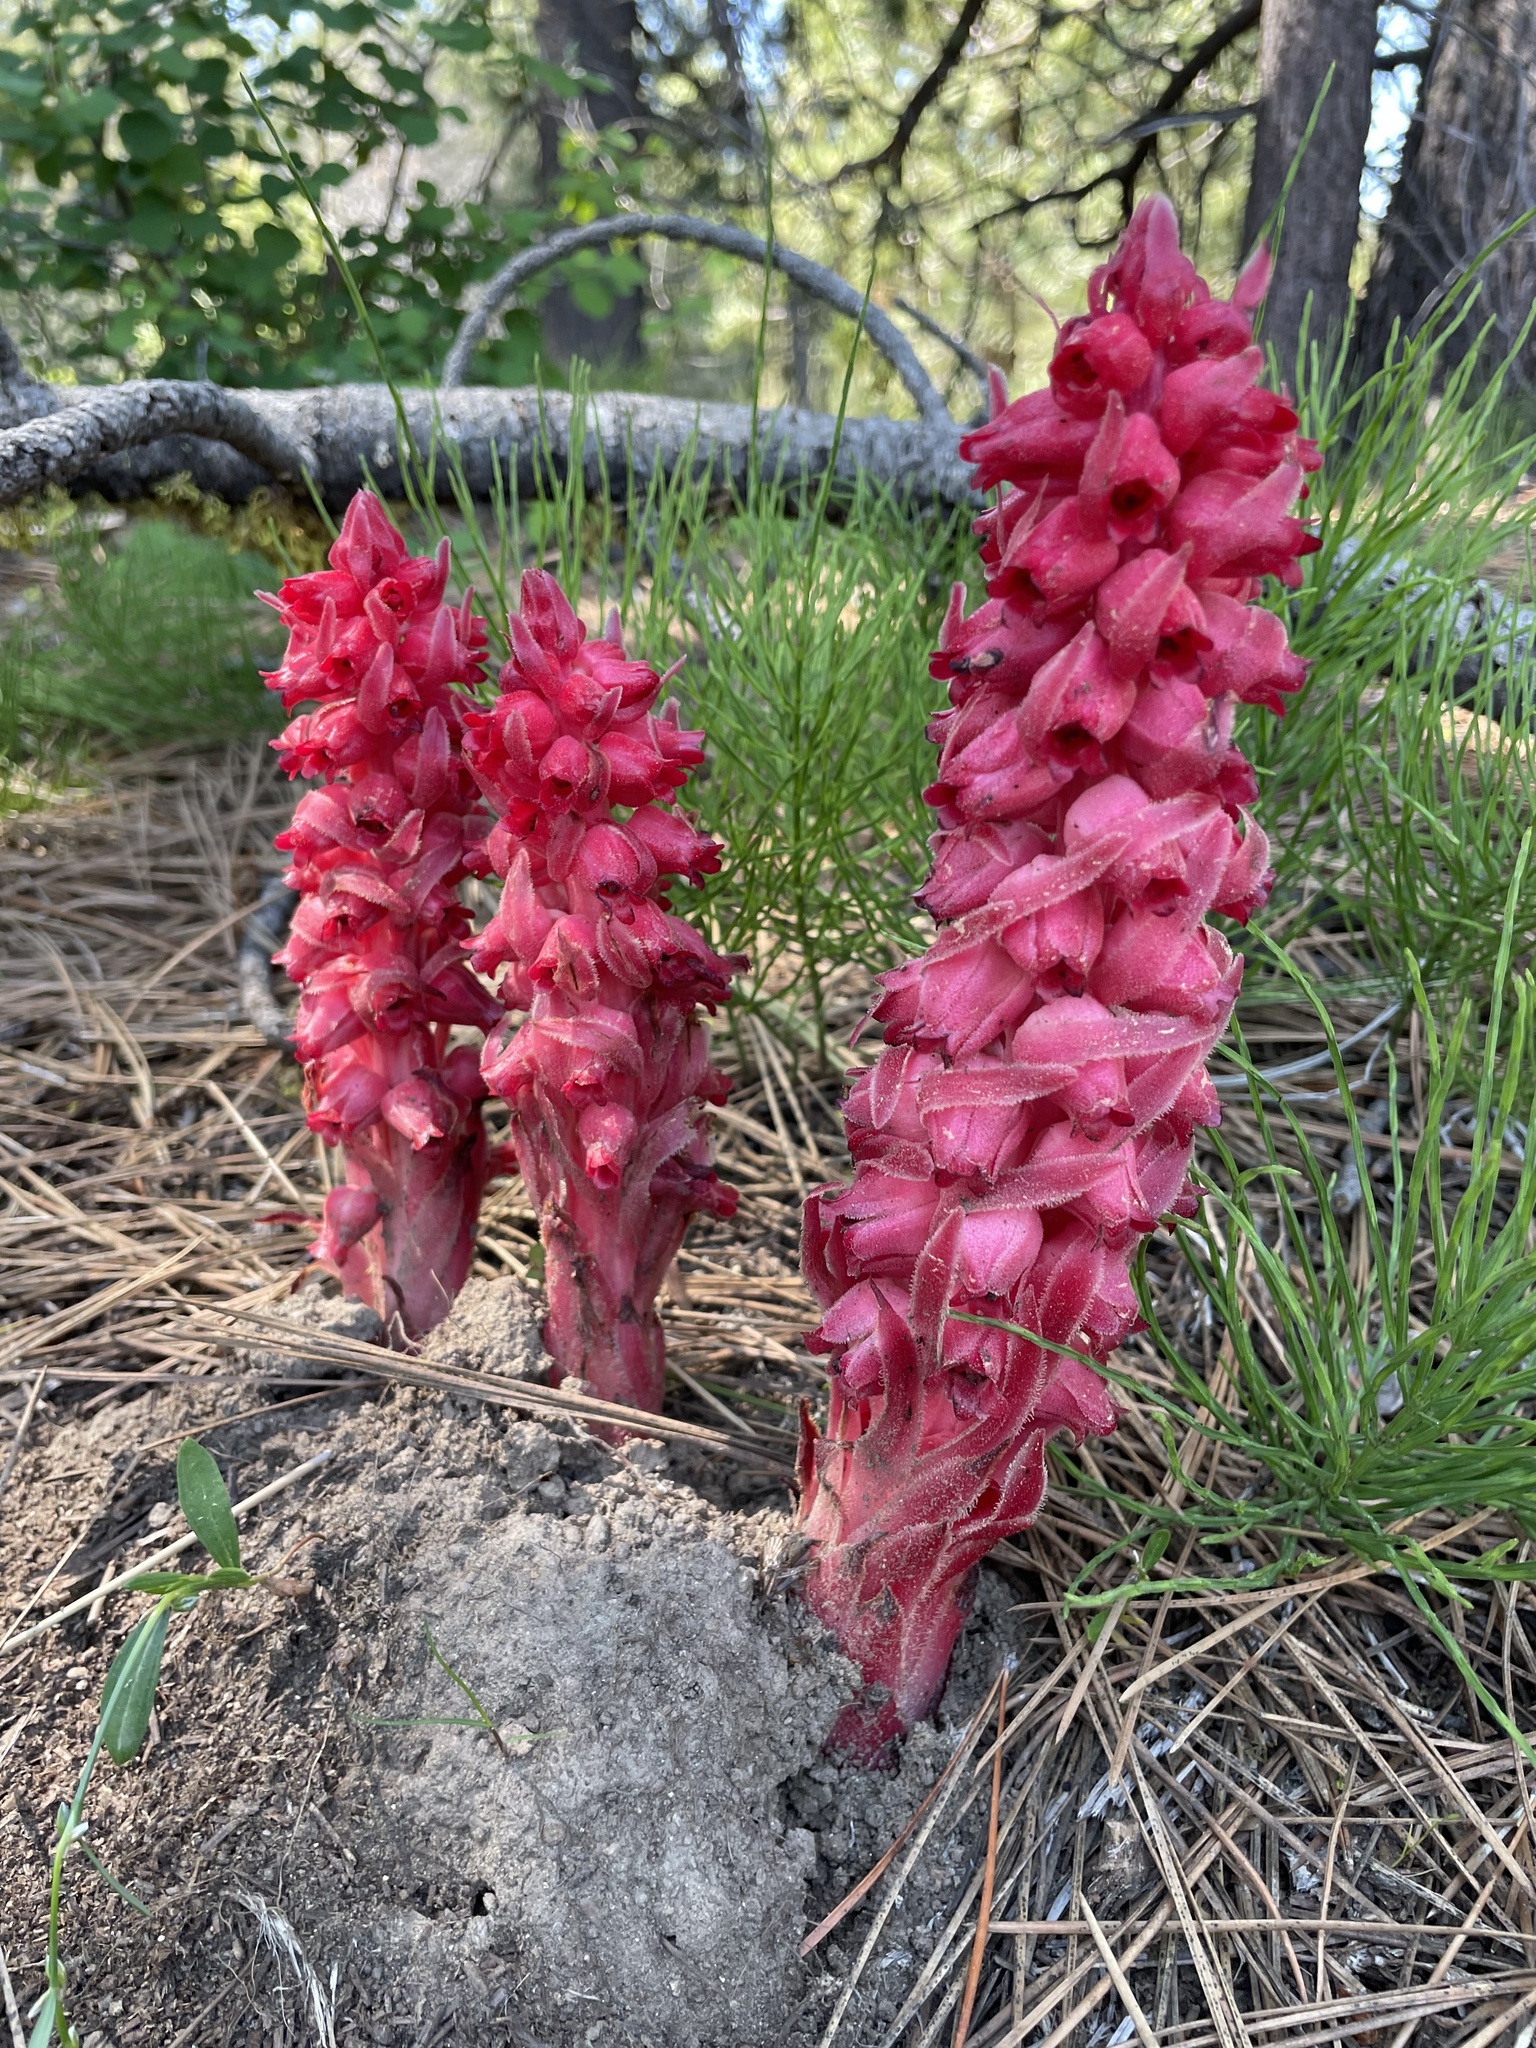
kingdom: Plantae
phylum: Tracheophyta
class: Magnoliopsida
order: Ericales
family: Ericaceae
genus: Sarcodes
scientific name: Sarcodes sanguinea
